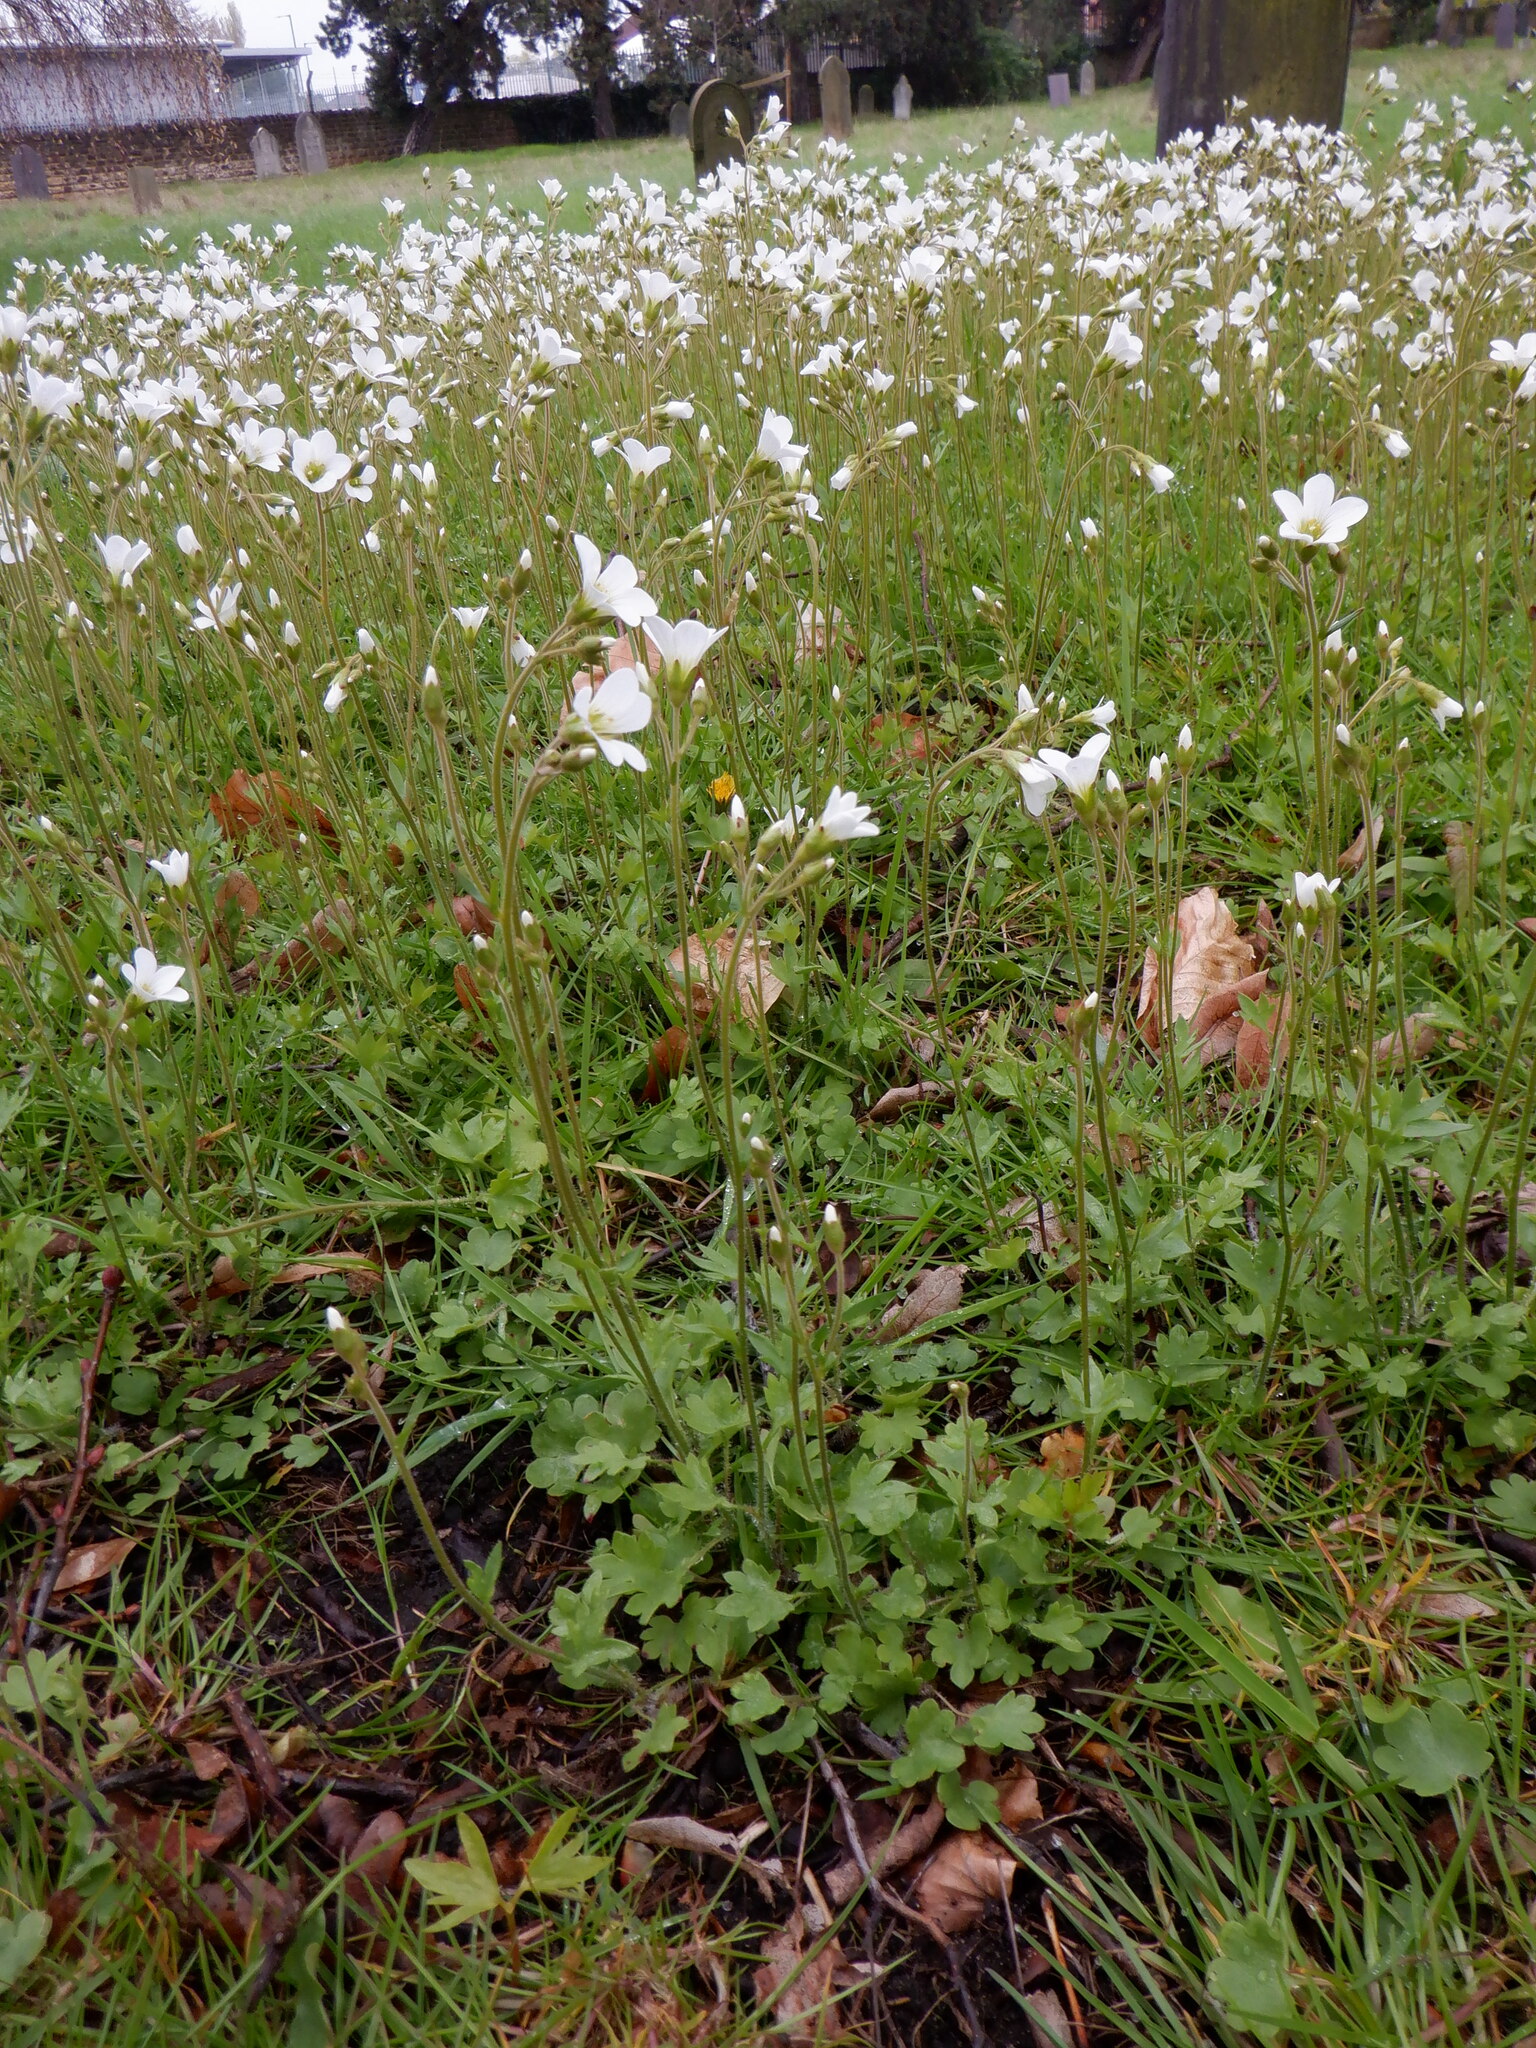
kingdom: Plantae
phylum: Tracheophyta
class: Magnoliopsida
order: Saxifragales
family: Saxifragaceae
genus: Saxifraga
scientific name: Saxifraga granulata
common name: Meadow saxifrage
